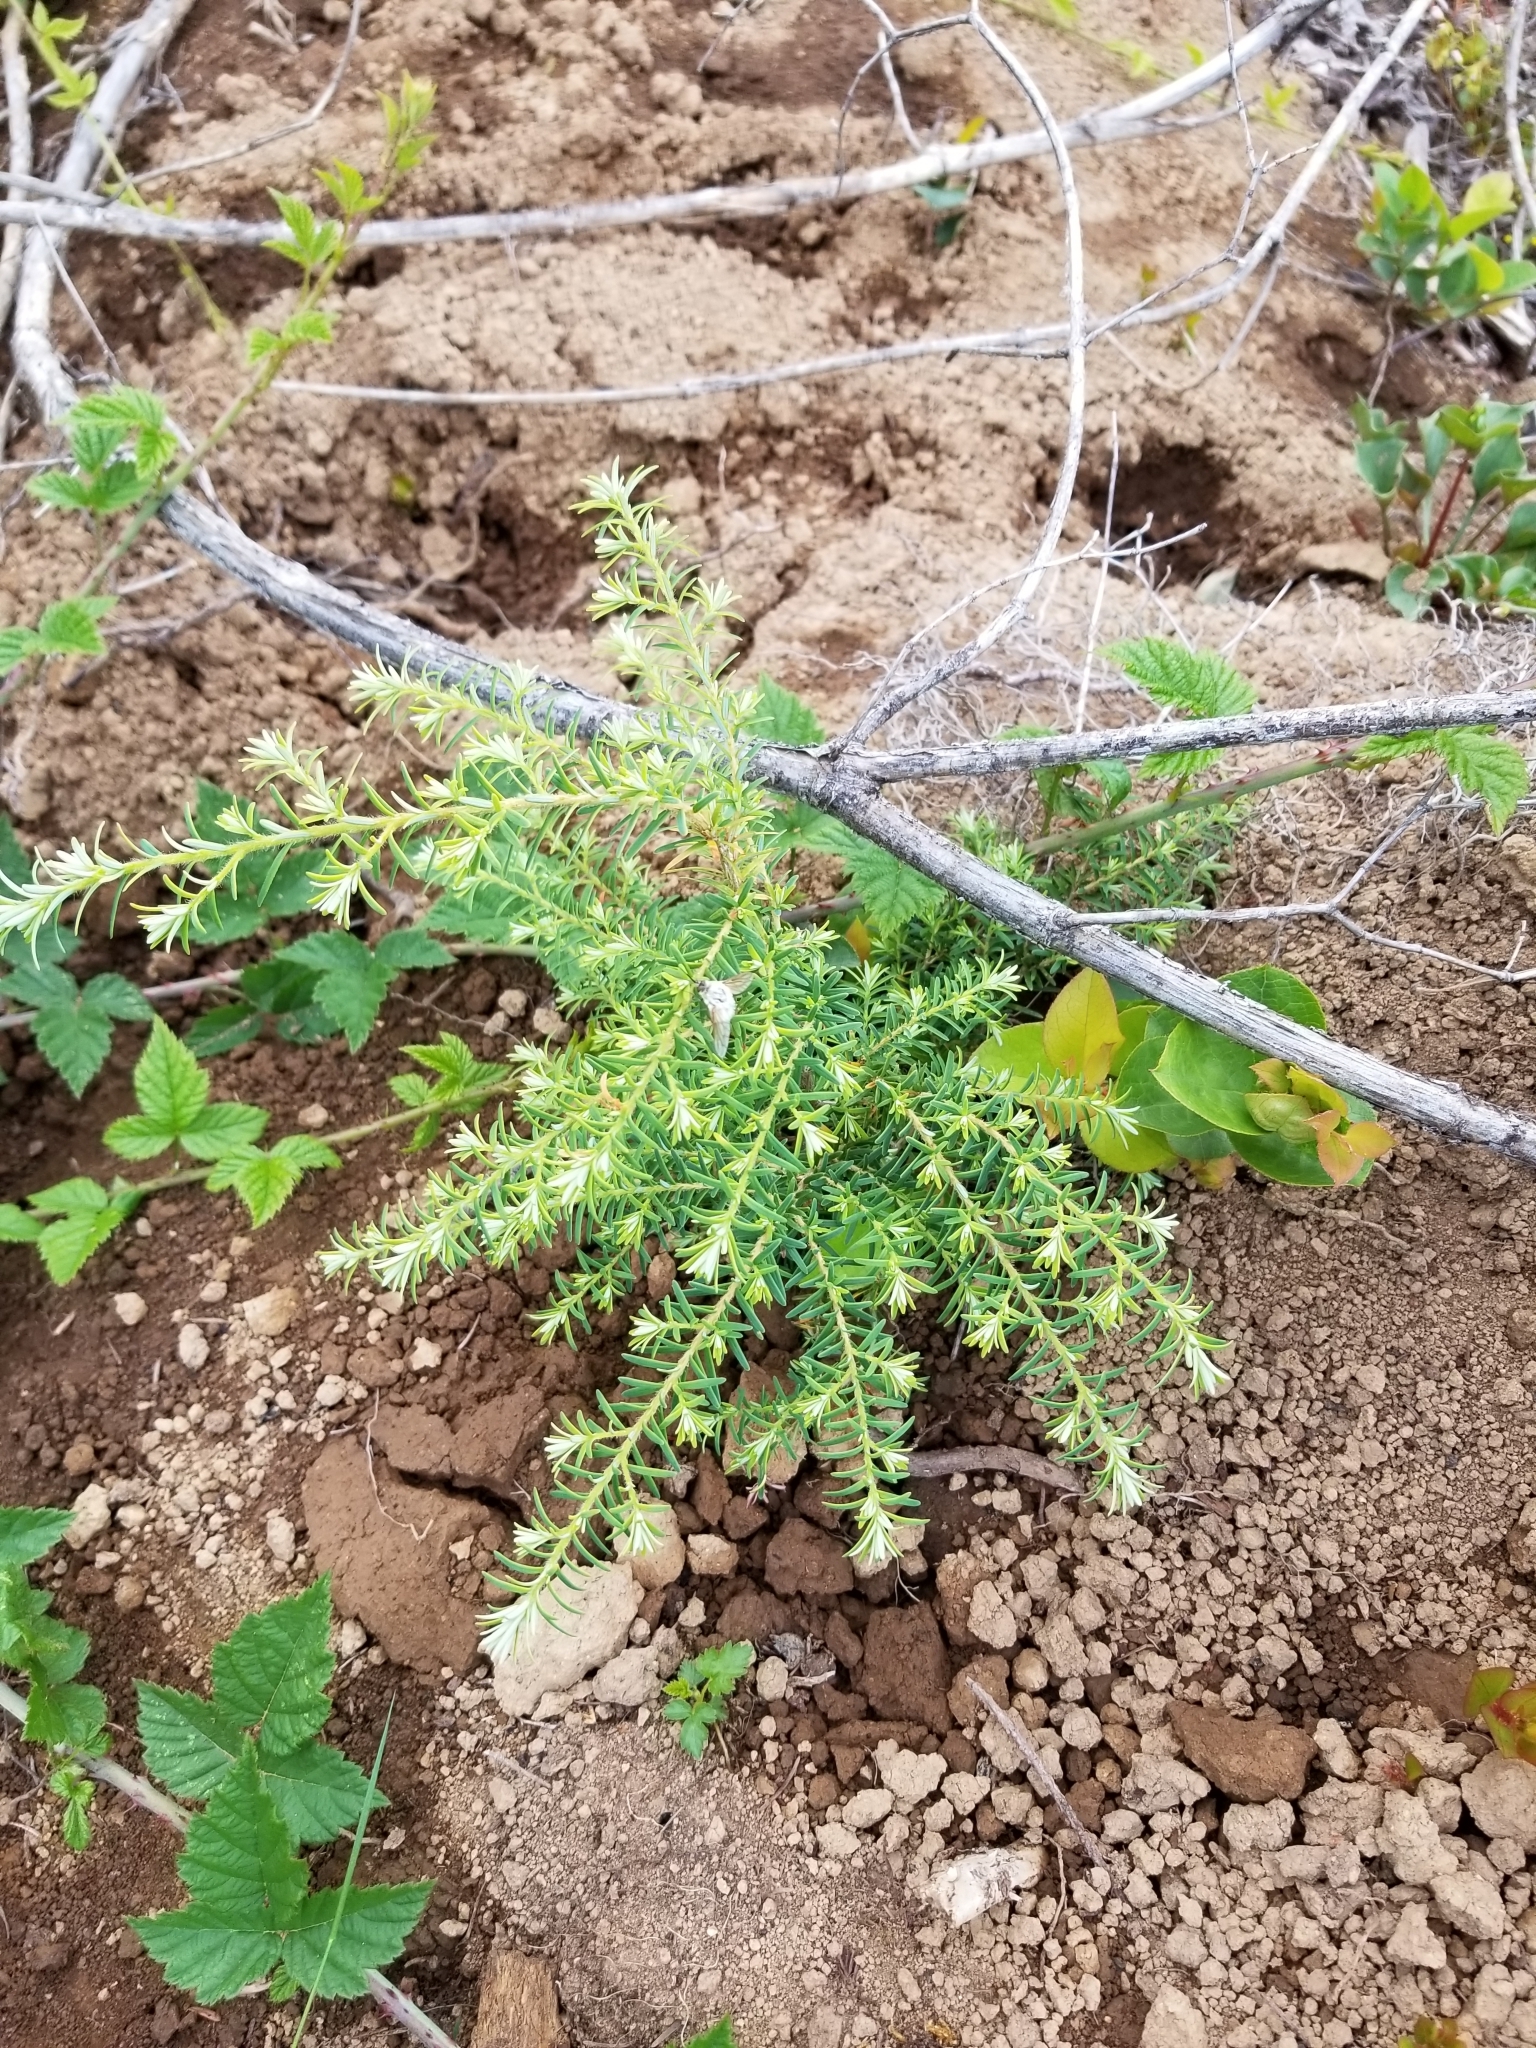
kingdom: Plantae
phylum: Tracheophyta
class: Pinopsida
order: Pinales
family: Pinaceae
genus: Tsuga
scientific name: Tsuga heterophylla
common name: Western hemlock
